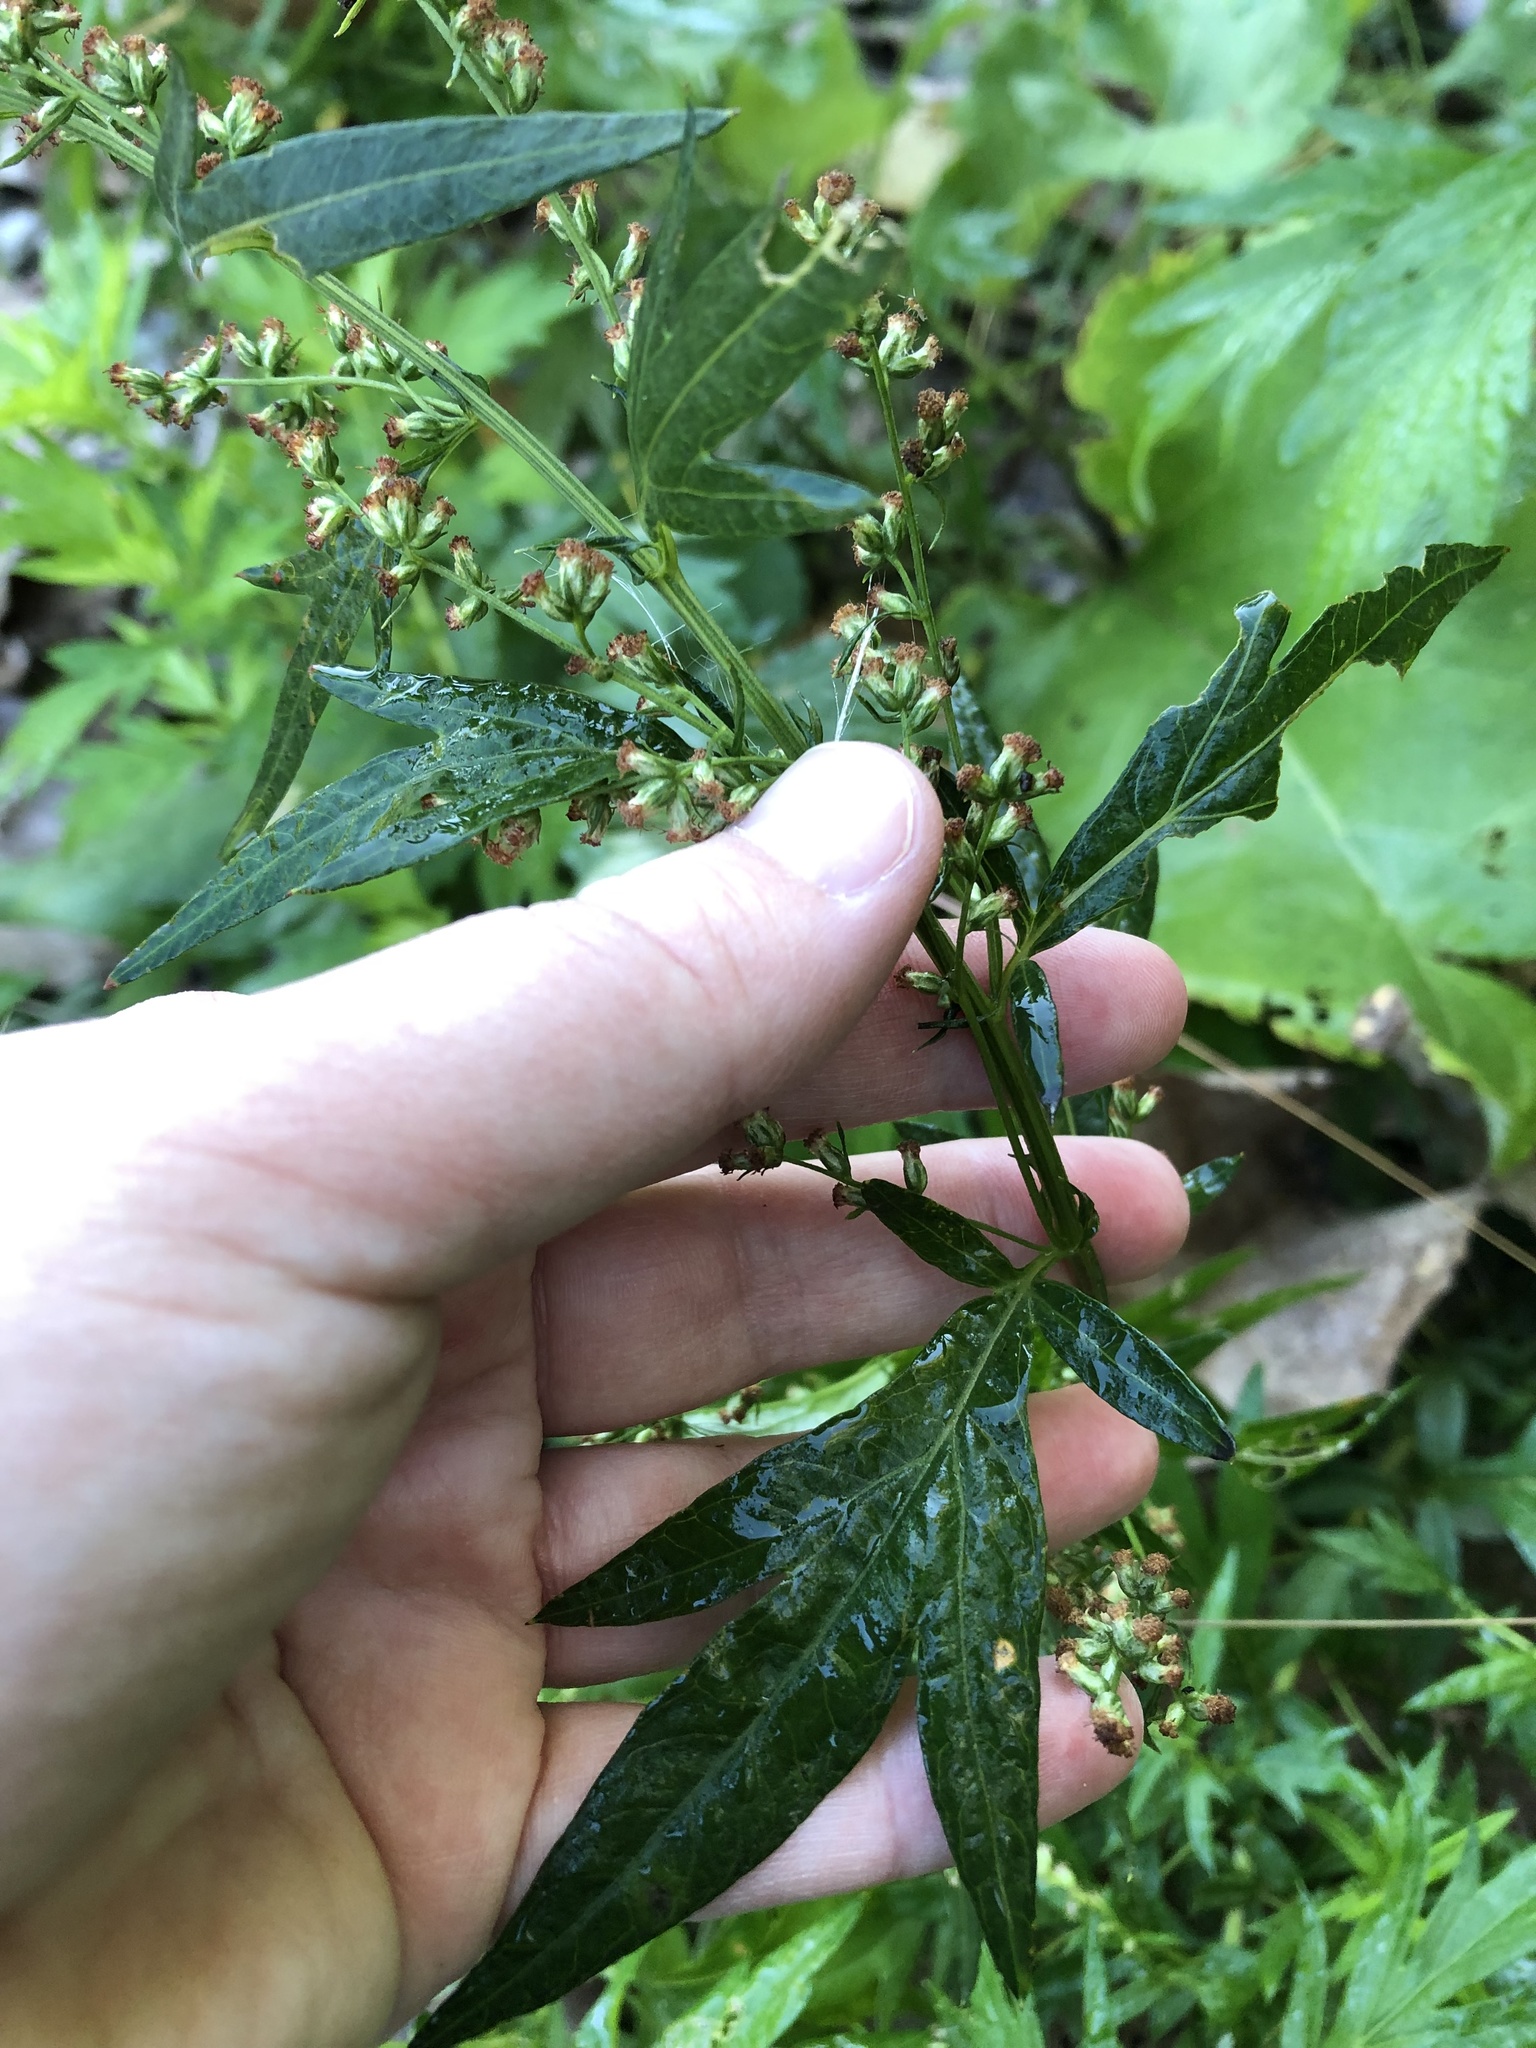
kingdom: Plantae
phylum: Tracheophyta
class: Magnoliopsida
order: Asterales
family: Asteraceae
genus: Artemisia
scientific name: Artemisia vulgaris
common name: Mugwort
